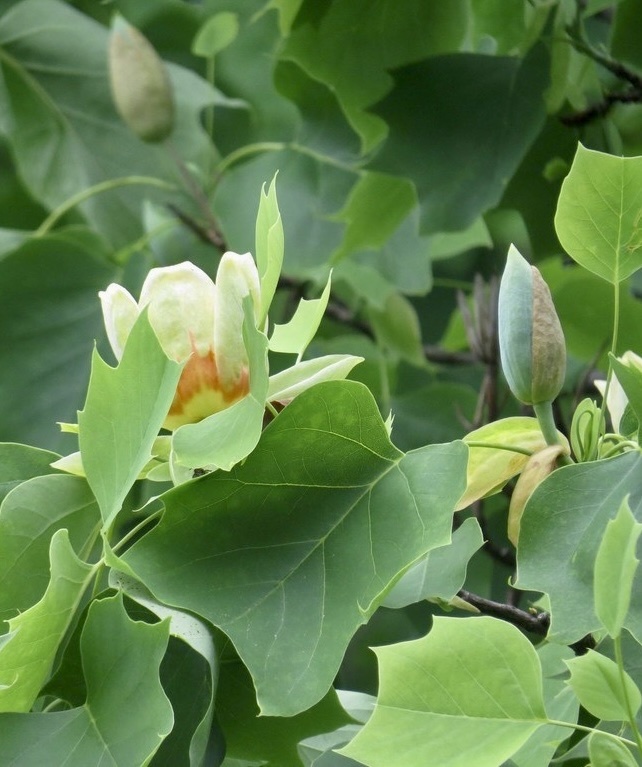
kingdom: Plantae
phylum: Tracheophyta
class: Magnoliopsida
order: Magnoliales
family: Magnoliaceae
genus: Liriodendron
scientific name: Liriodendron tulipifera
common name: Tulip tree
